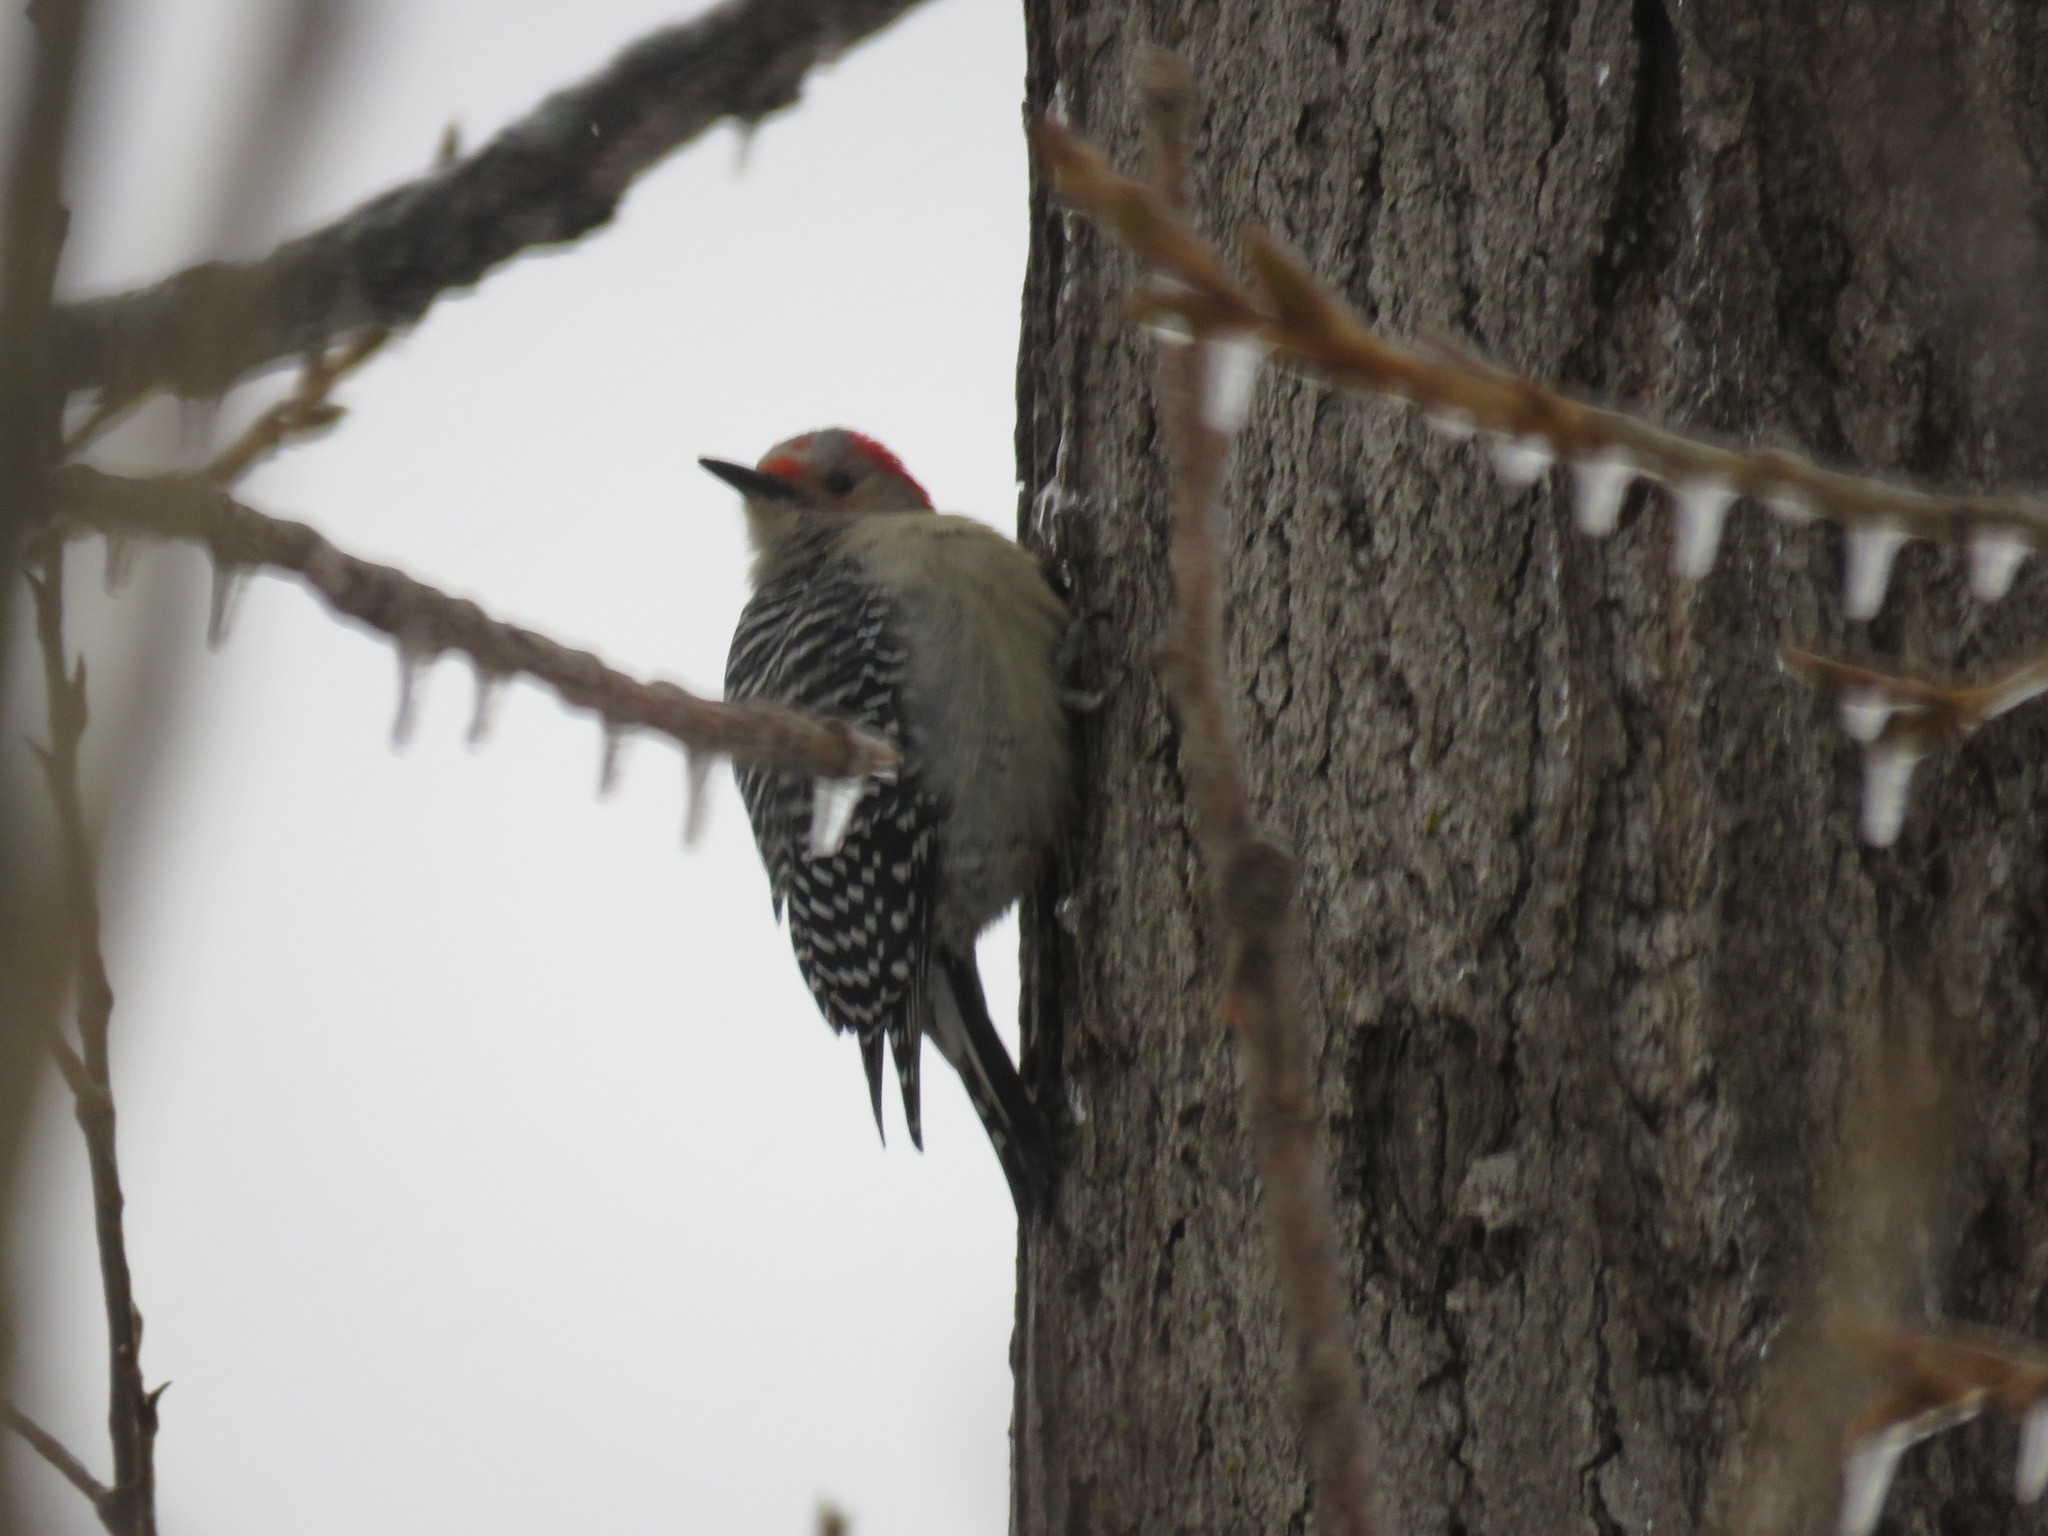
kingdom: Animalia
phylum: Chordata
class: Aves
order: Piciformes
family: Picidae
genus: Melanerpes
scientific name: Melanerpes carolinus
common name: Red-bellied woodpecker
